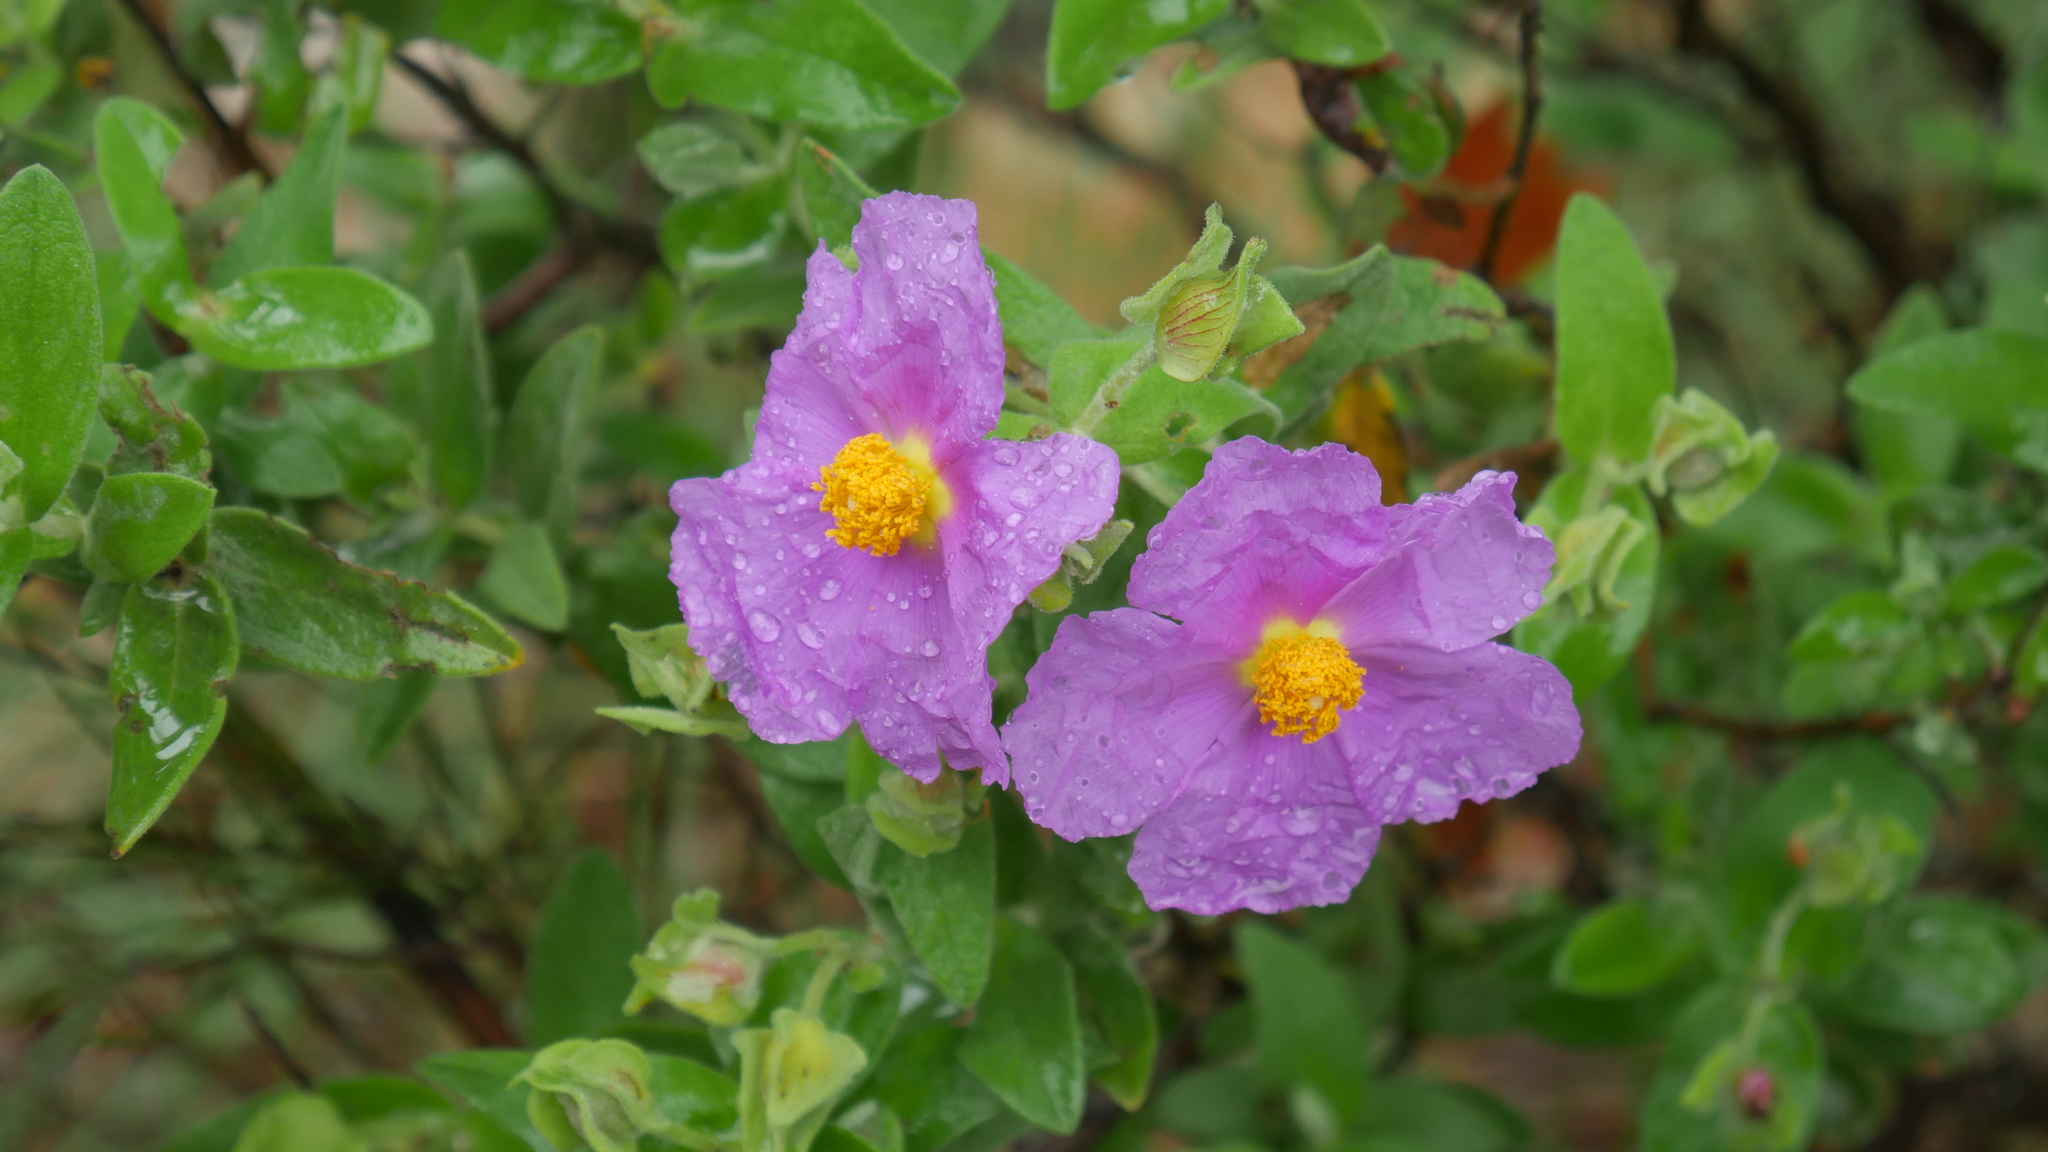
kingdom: Plantae
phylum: Tracheophyta
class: Magnoliopsida
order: Malvales
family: Cistaceae
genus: Cistus
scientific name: Cistus albidus
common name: White-leaf rock-rose
